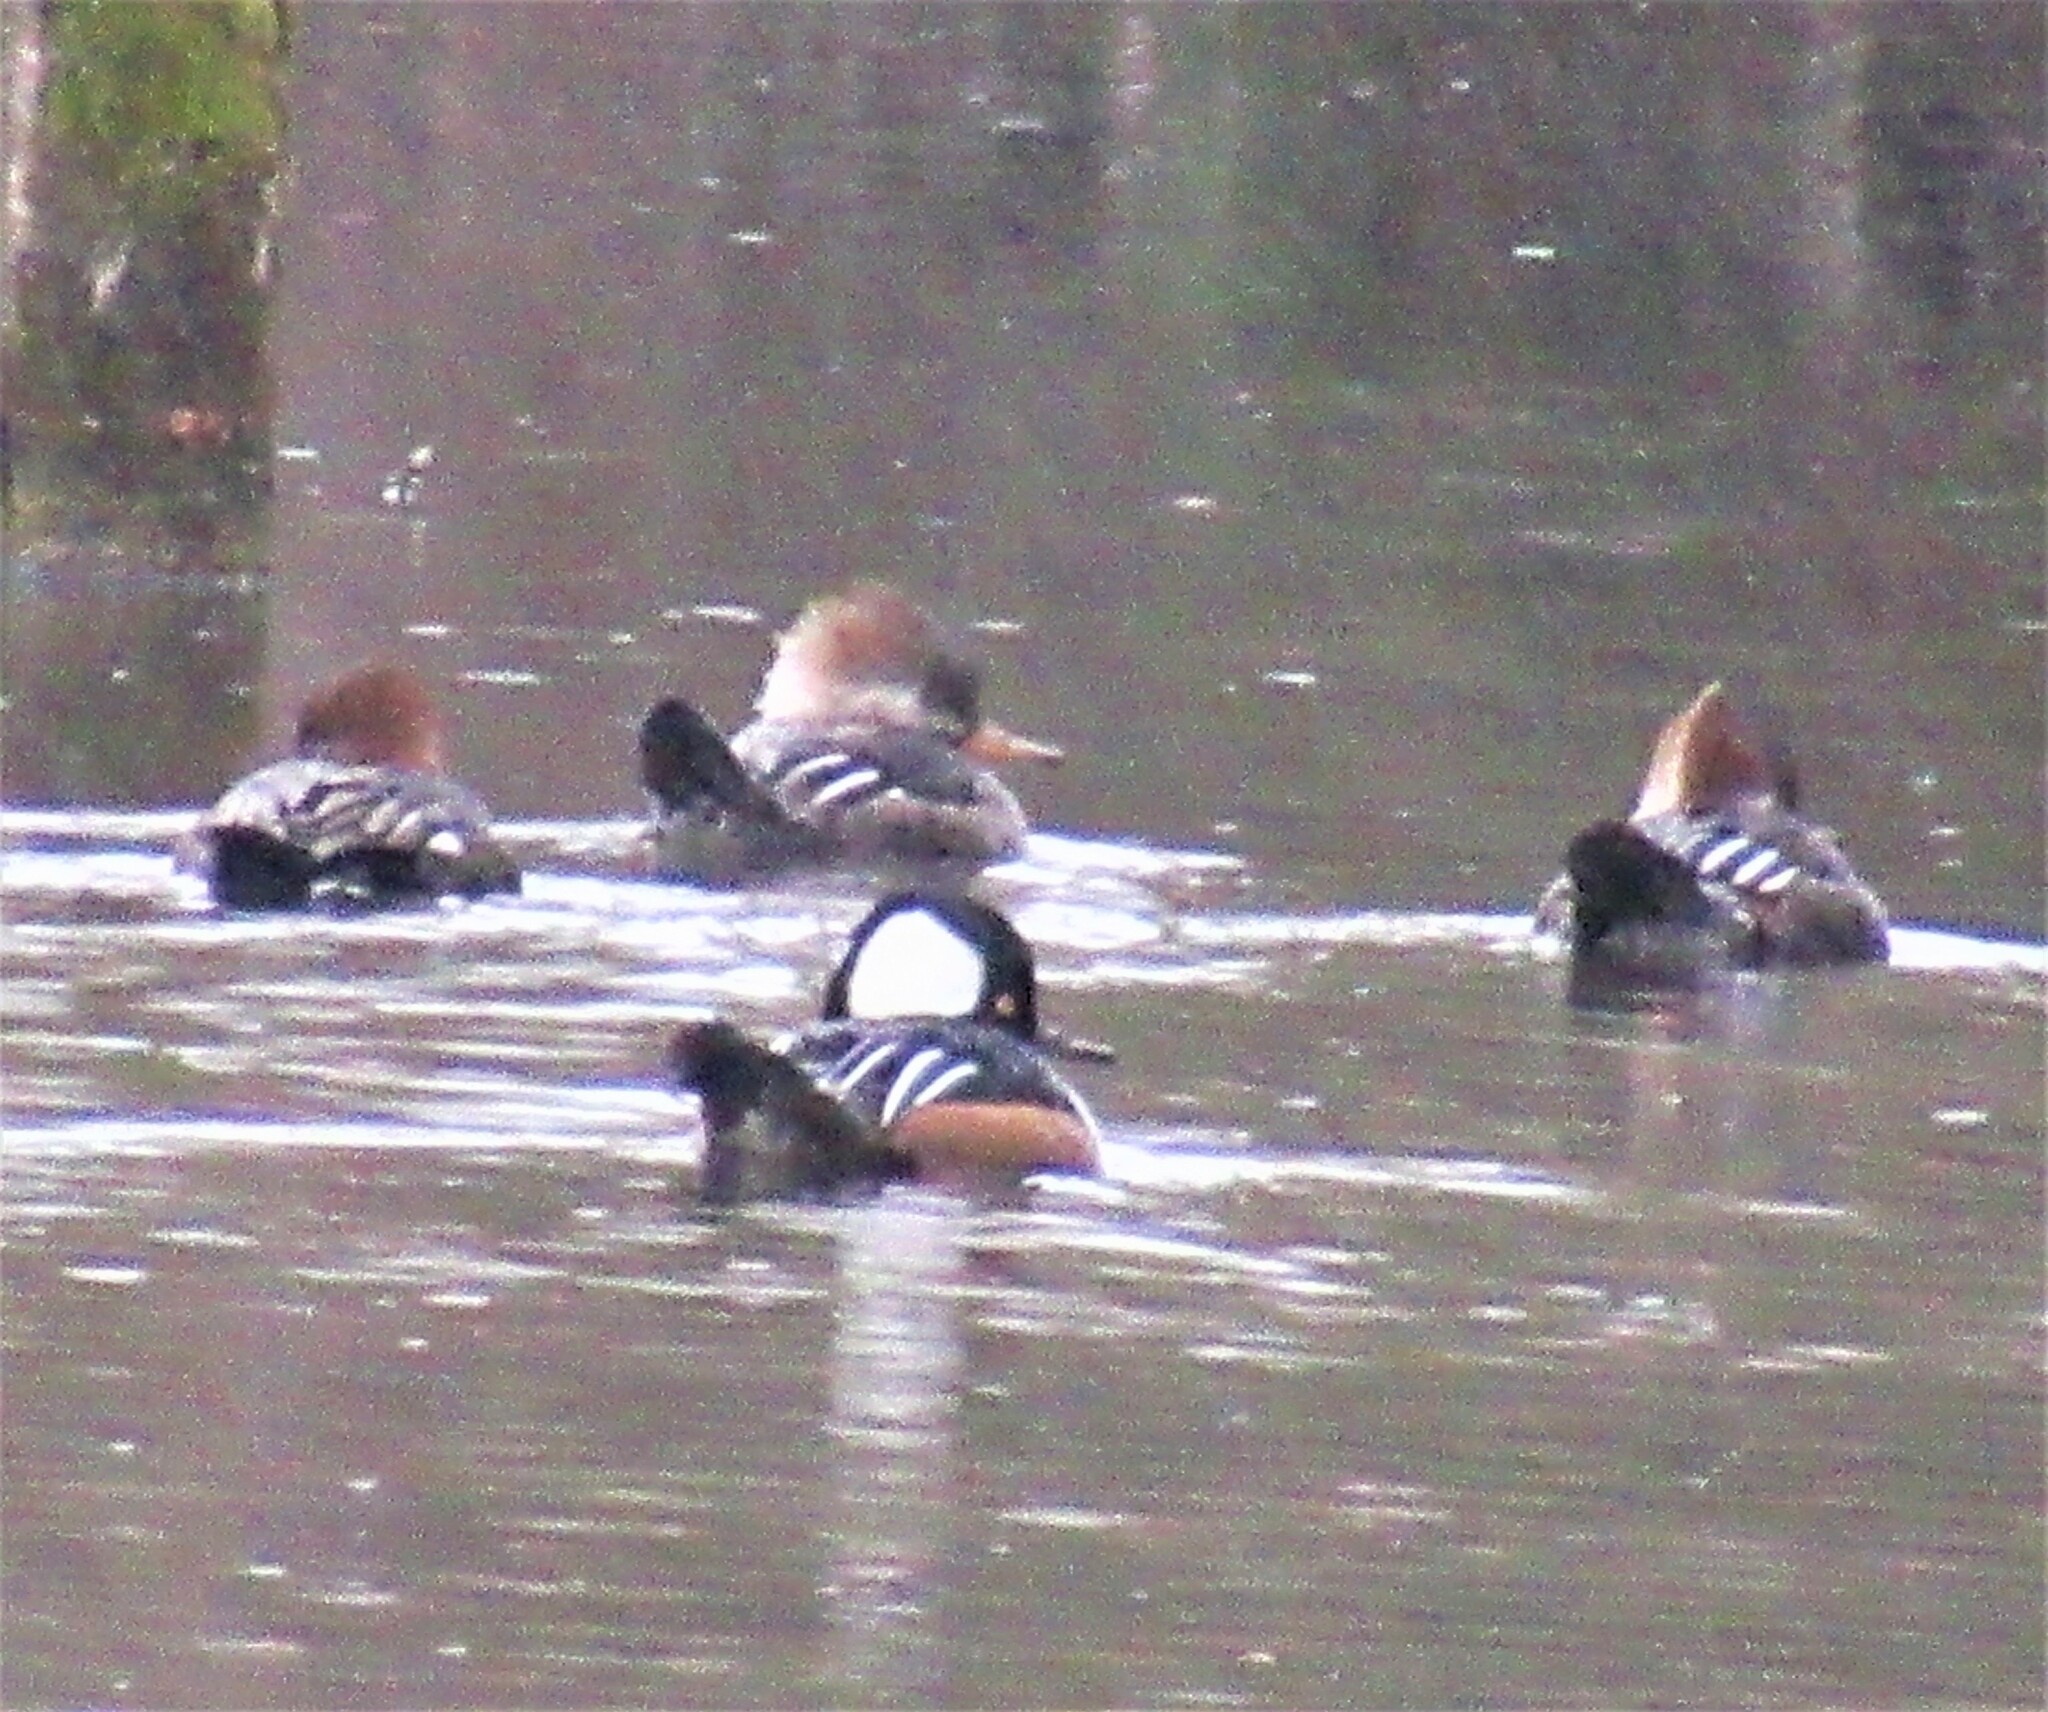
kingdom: Animalia
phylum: Chordata
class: Aves
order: Anseriformes
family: Anatidae
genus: Lophodytes
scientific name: Lophodytes cucullatus
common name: Hooded merganser
